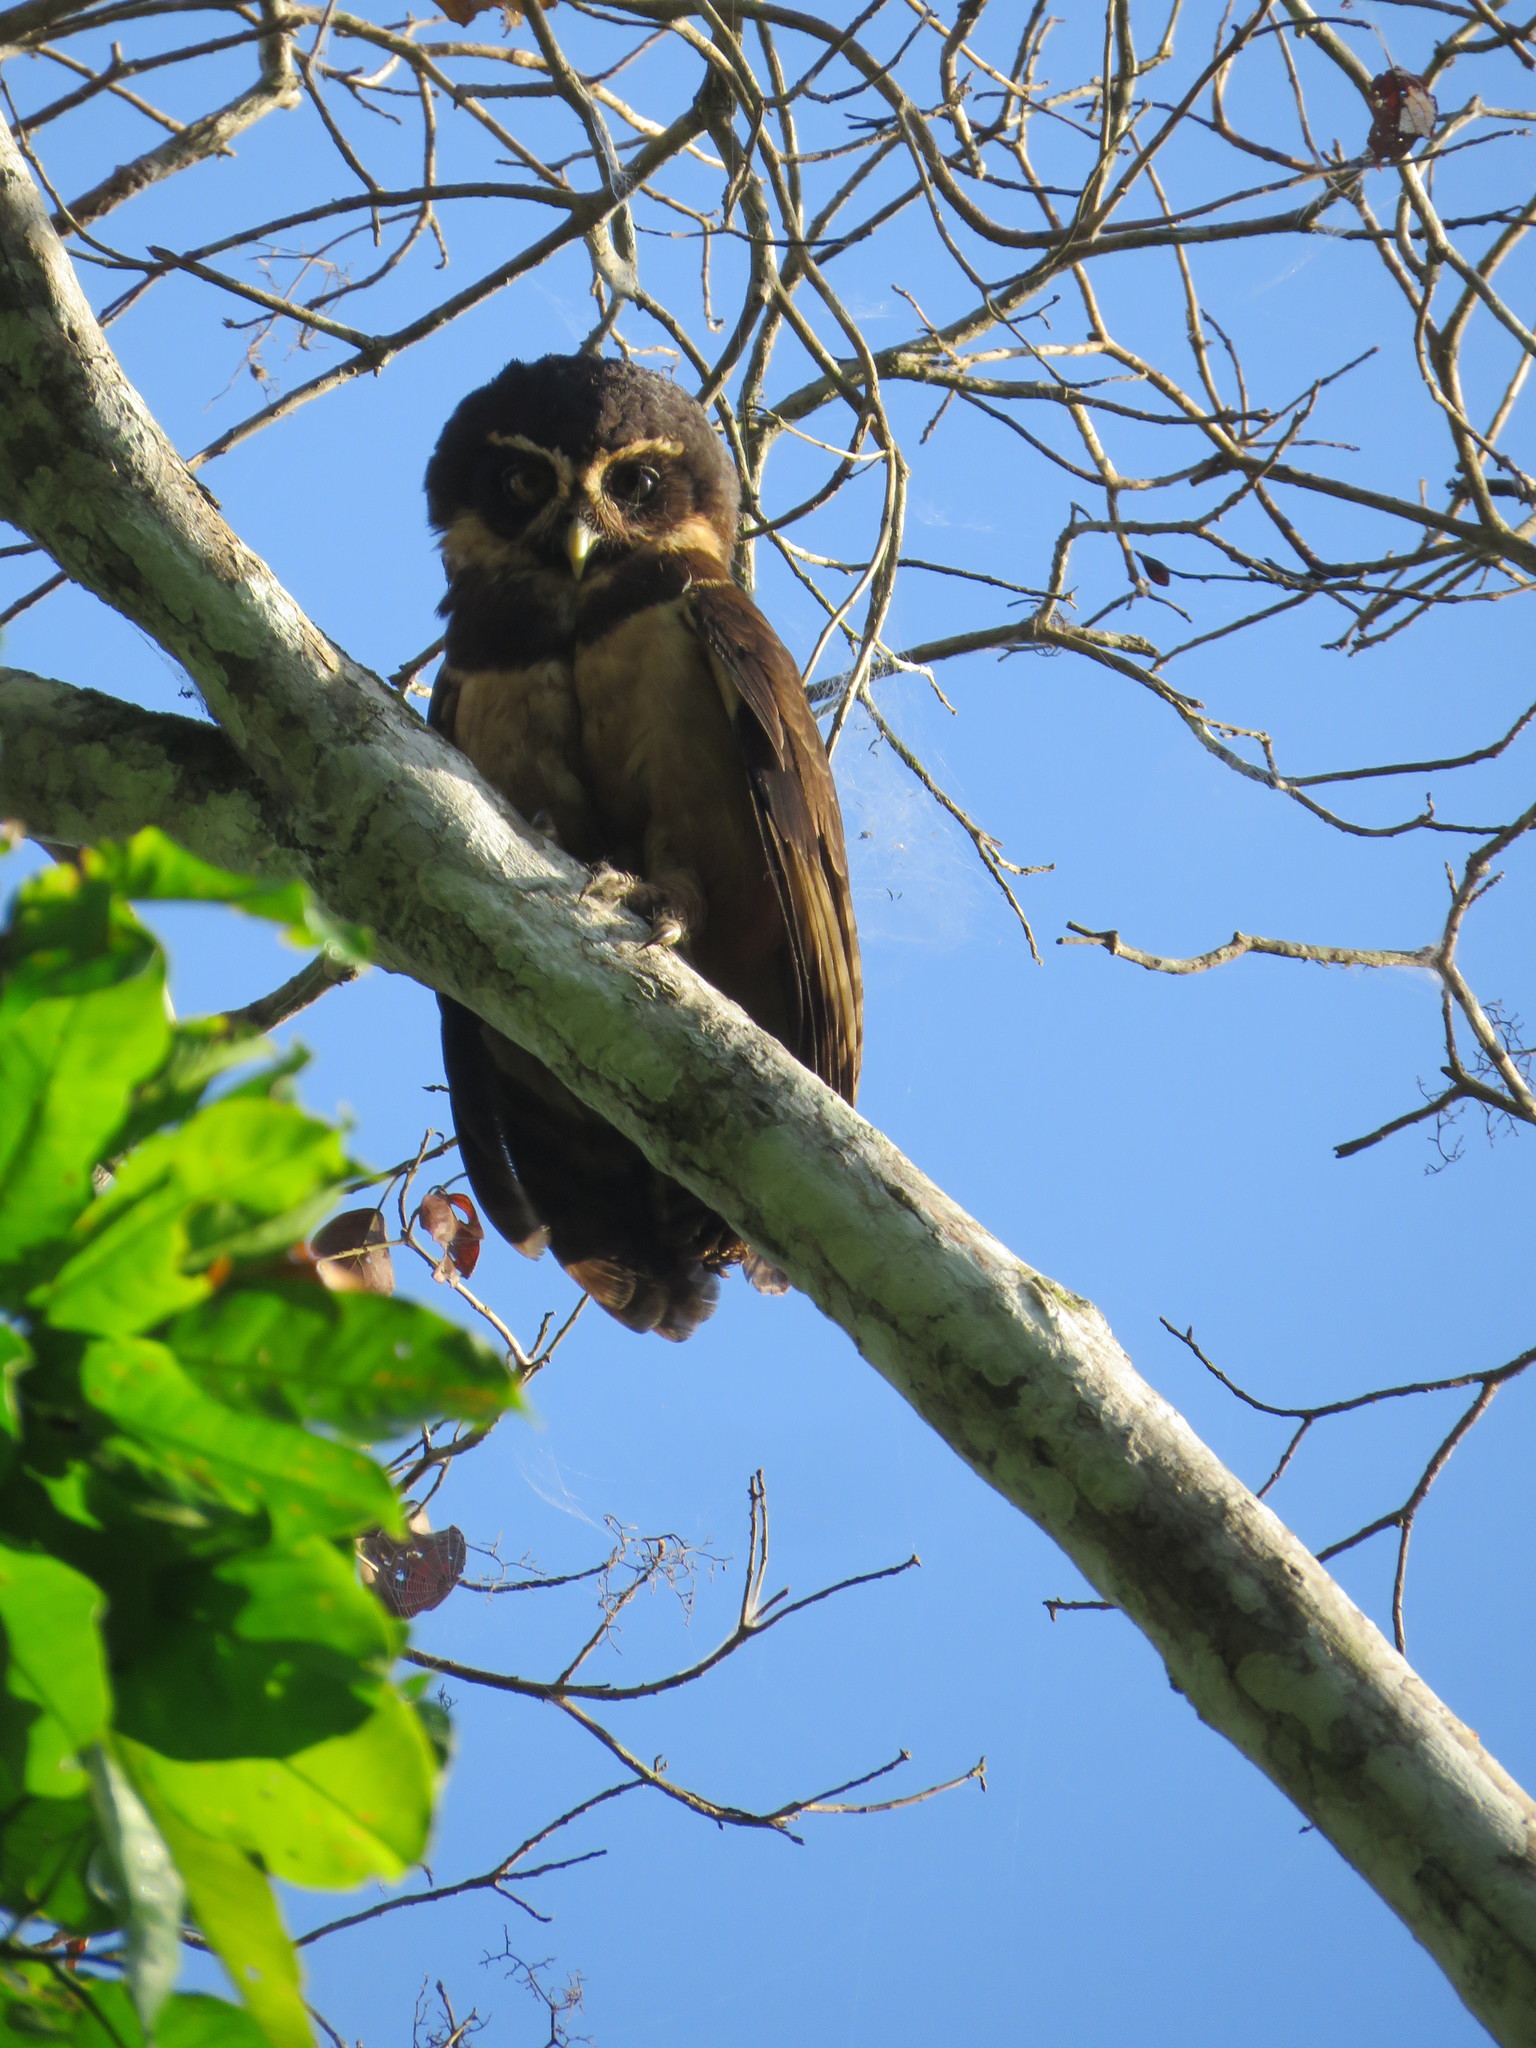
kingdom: Animalia
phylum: Chordata
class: Aves
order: Strigiformes
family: Strigidae
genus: Pulsatrix
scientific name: Pulsatrix perspicillata
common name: Spectacled owl
